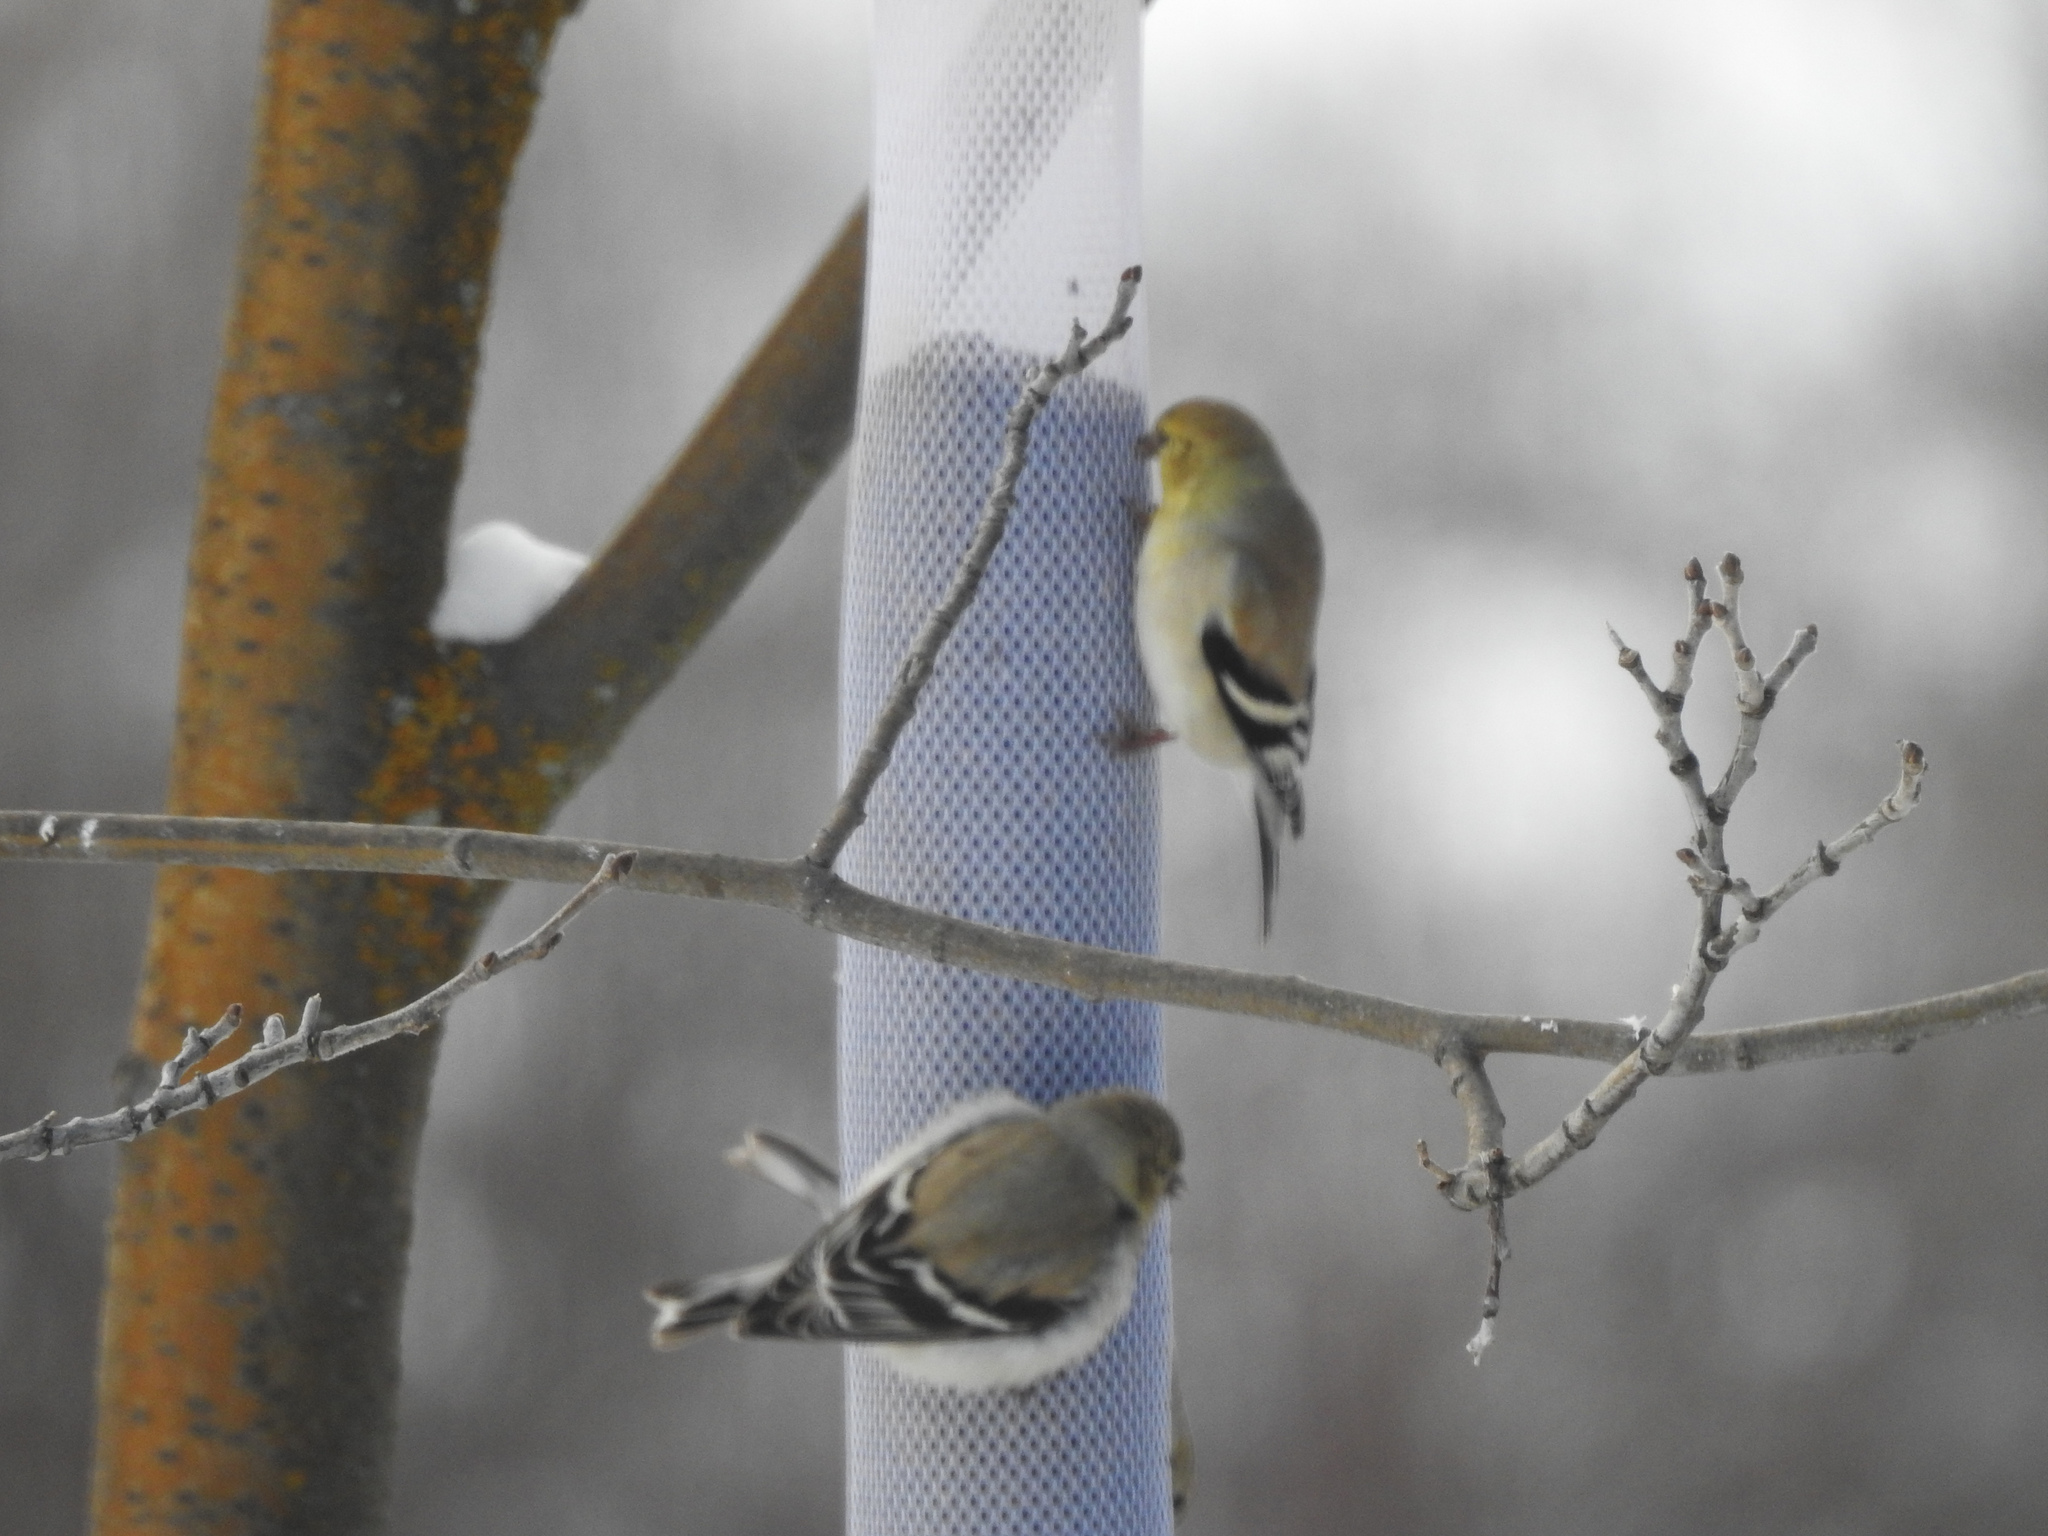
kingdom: Animalia
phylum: Chordata
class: Aves
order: Passeriformes
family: Fringillidae
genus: Spinus
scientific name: Spinus tristis
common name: American goldfinch
